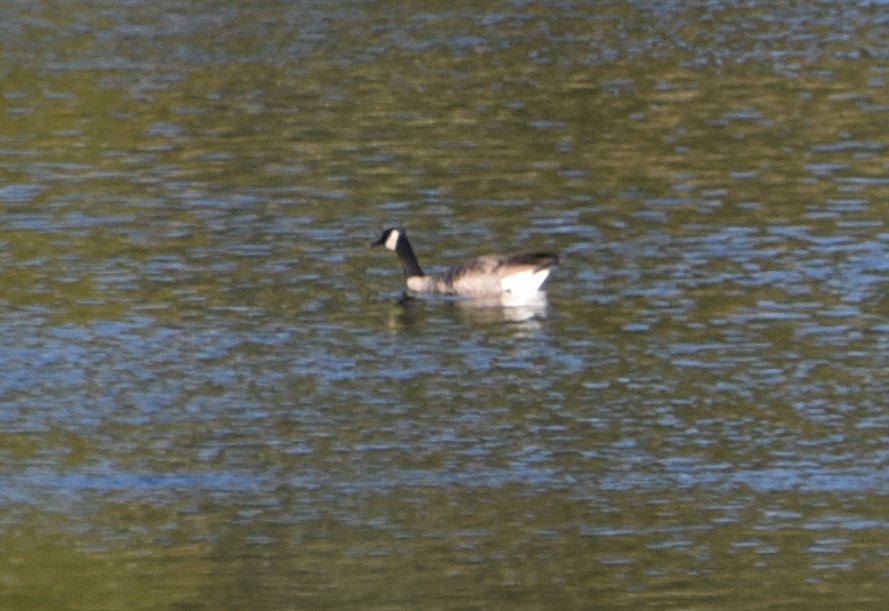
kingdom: Animalia
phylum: Chordata
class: Aves
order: Anseriformes
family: Anatidae
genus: Branta
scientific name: Branta canadensis
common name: Canada goose
